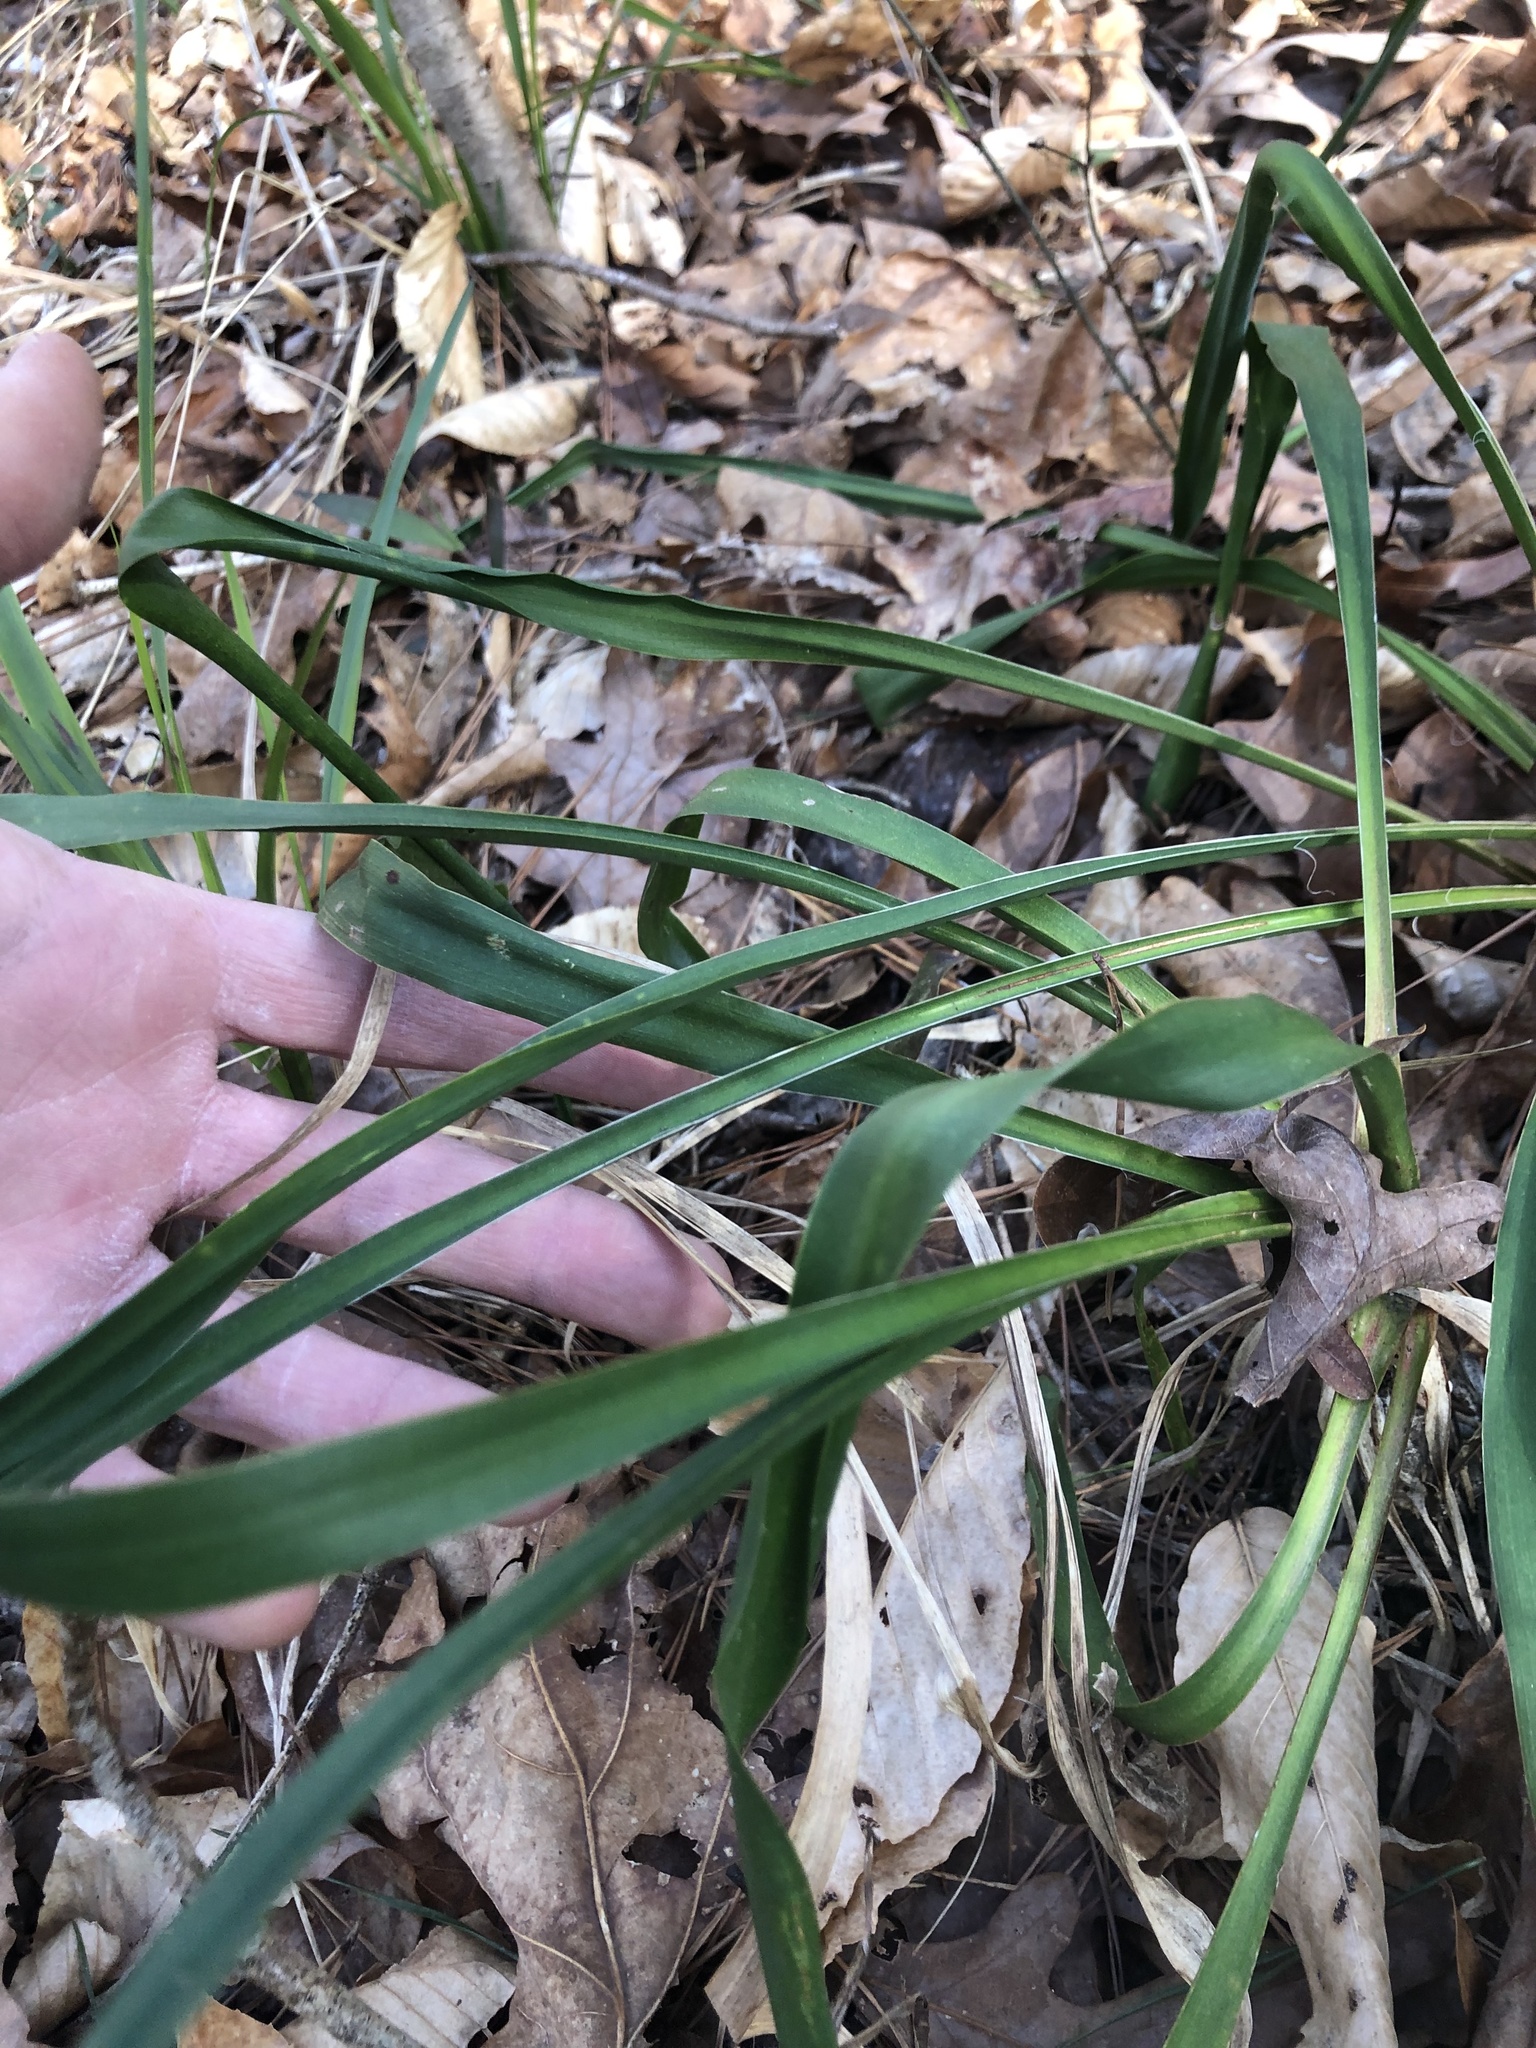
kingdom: Plantae
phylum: Tracheophyta
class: Liliopsida
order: Asparagales
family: Asparagaceae
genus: Yucca
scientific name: Yucca flaccida
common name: Adam's-needle
